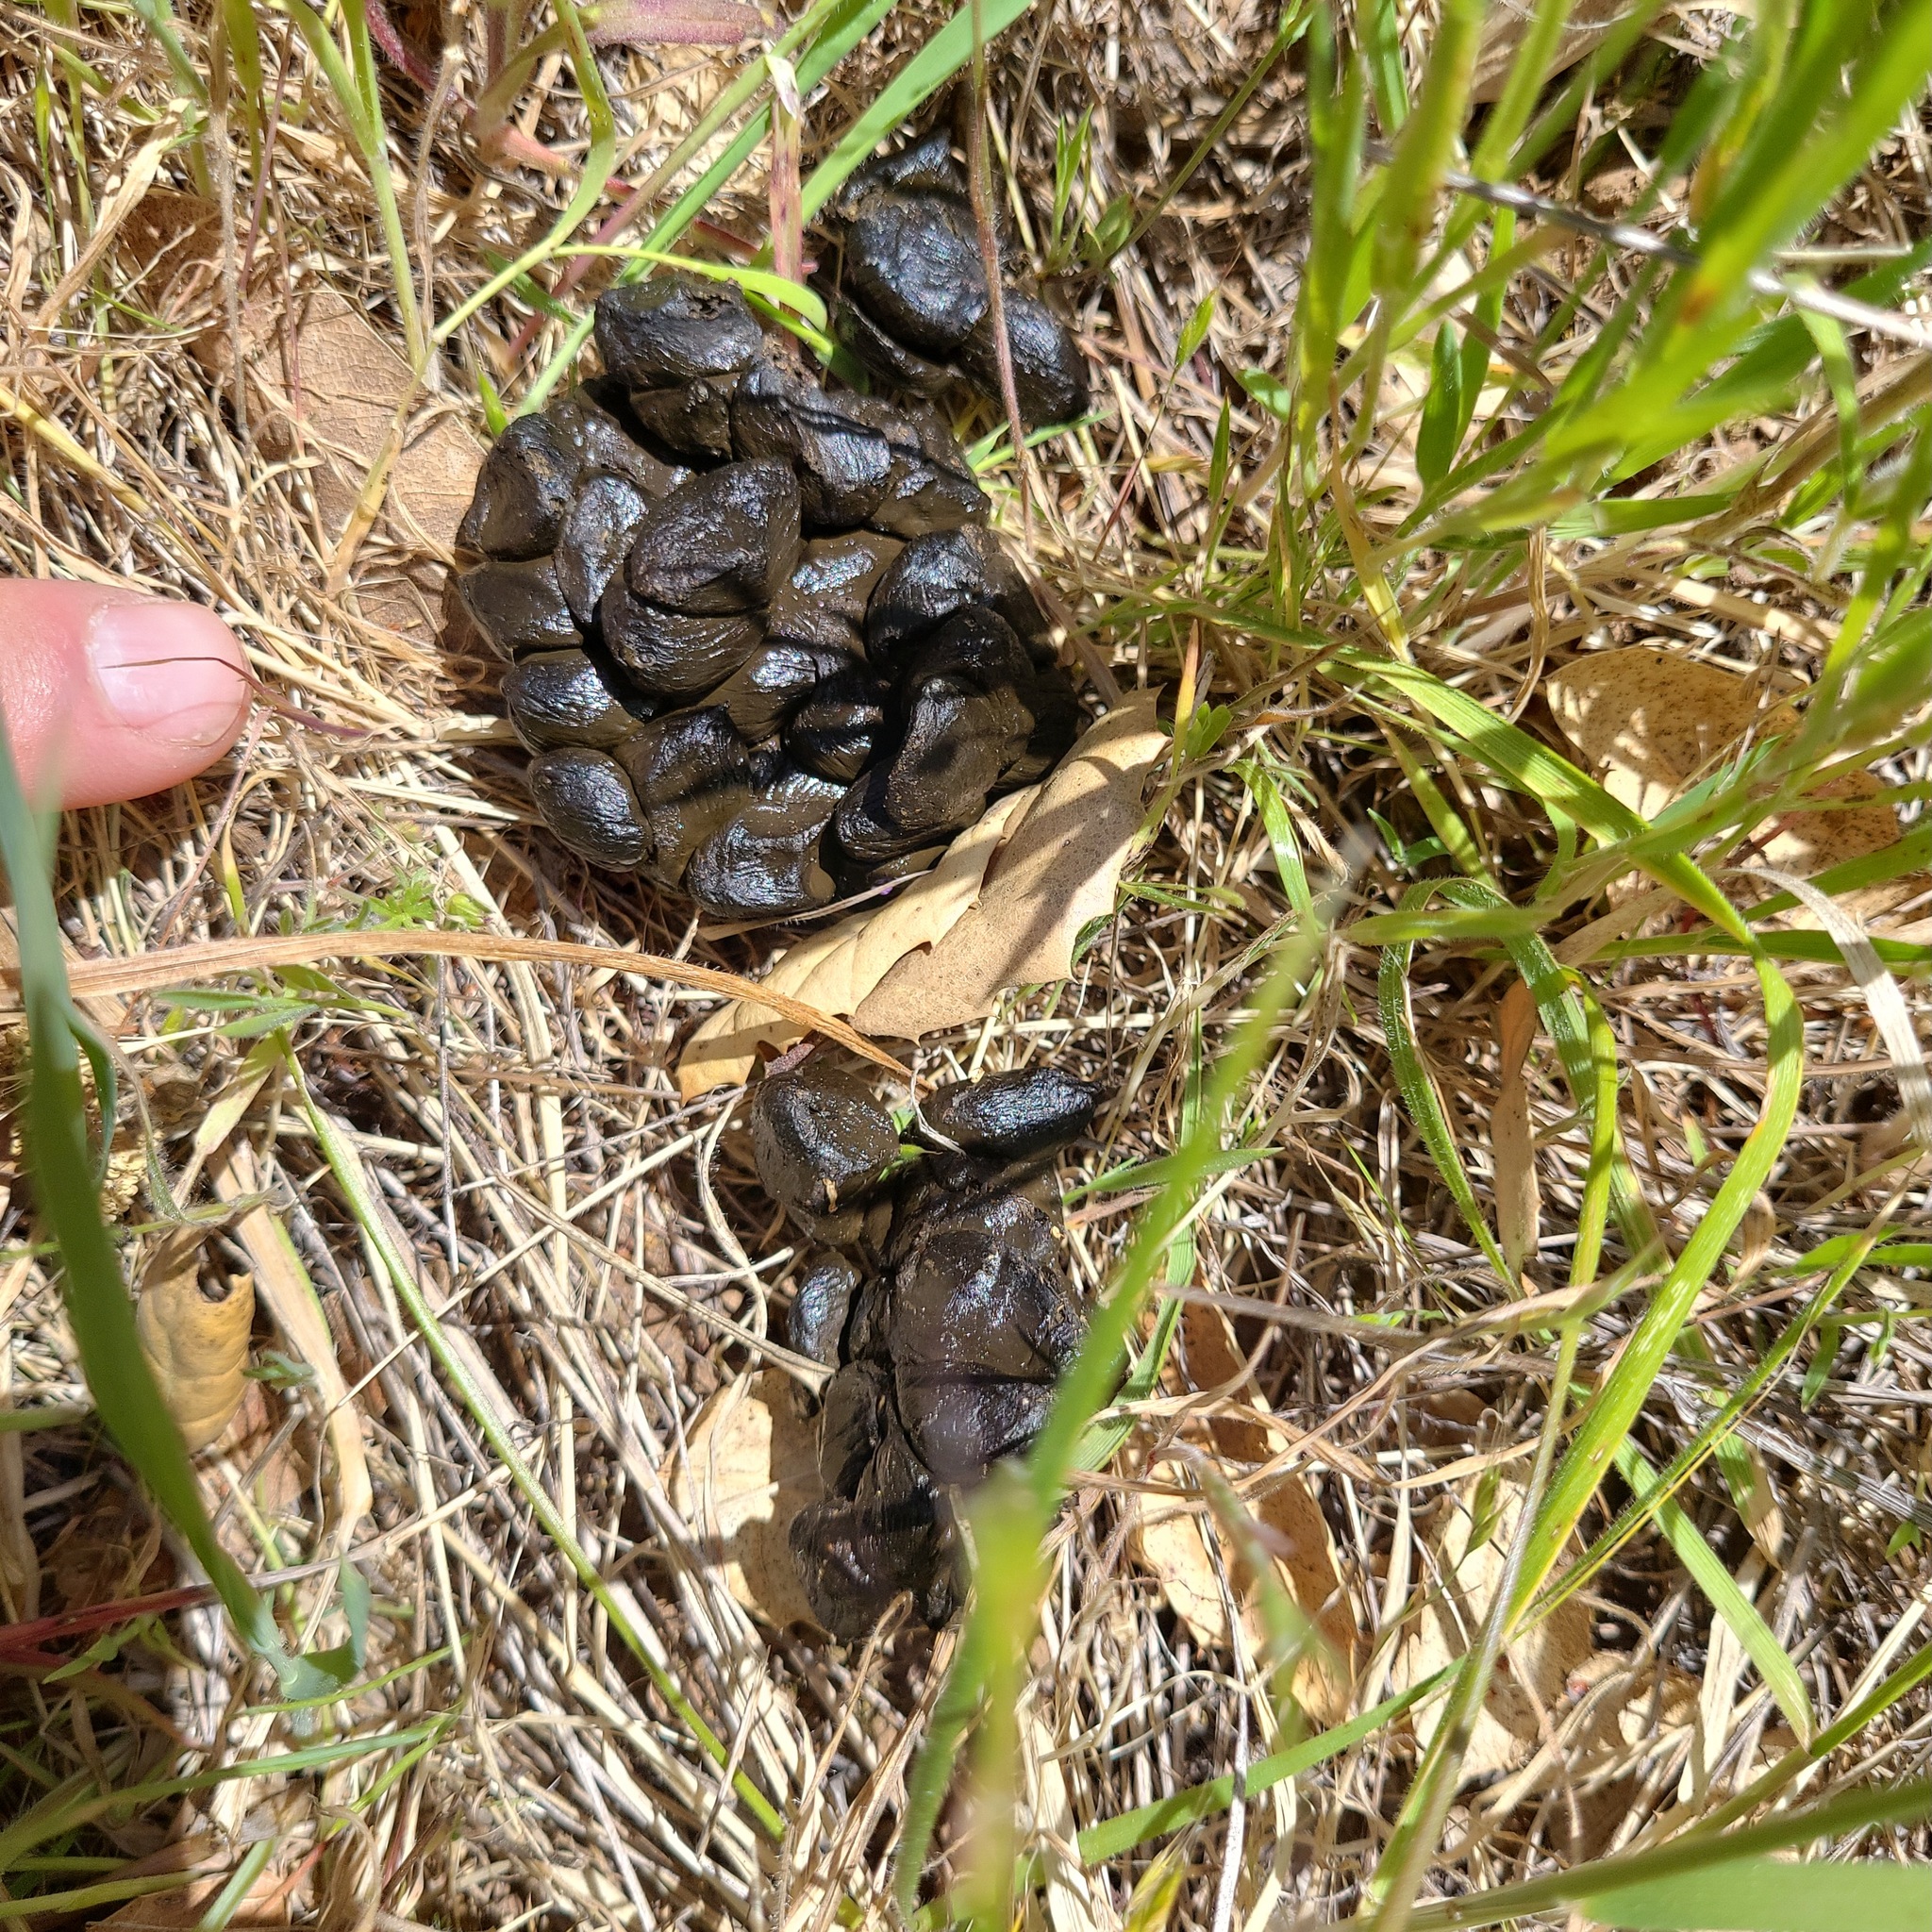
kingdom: Animalia
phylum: Chordata
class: Mammalia
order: Artiodactyla
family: Cervidae
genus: Odocoileus
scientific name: Odocoileus hemionus
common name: Mule deer
